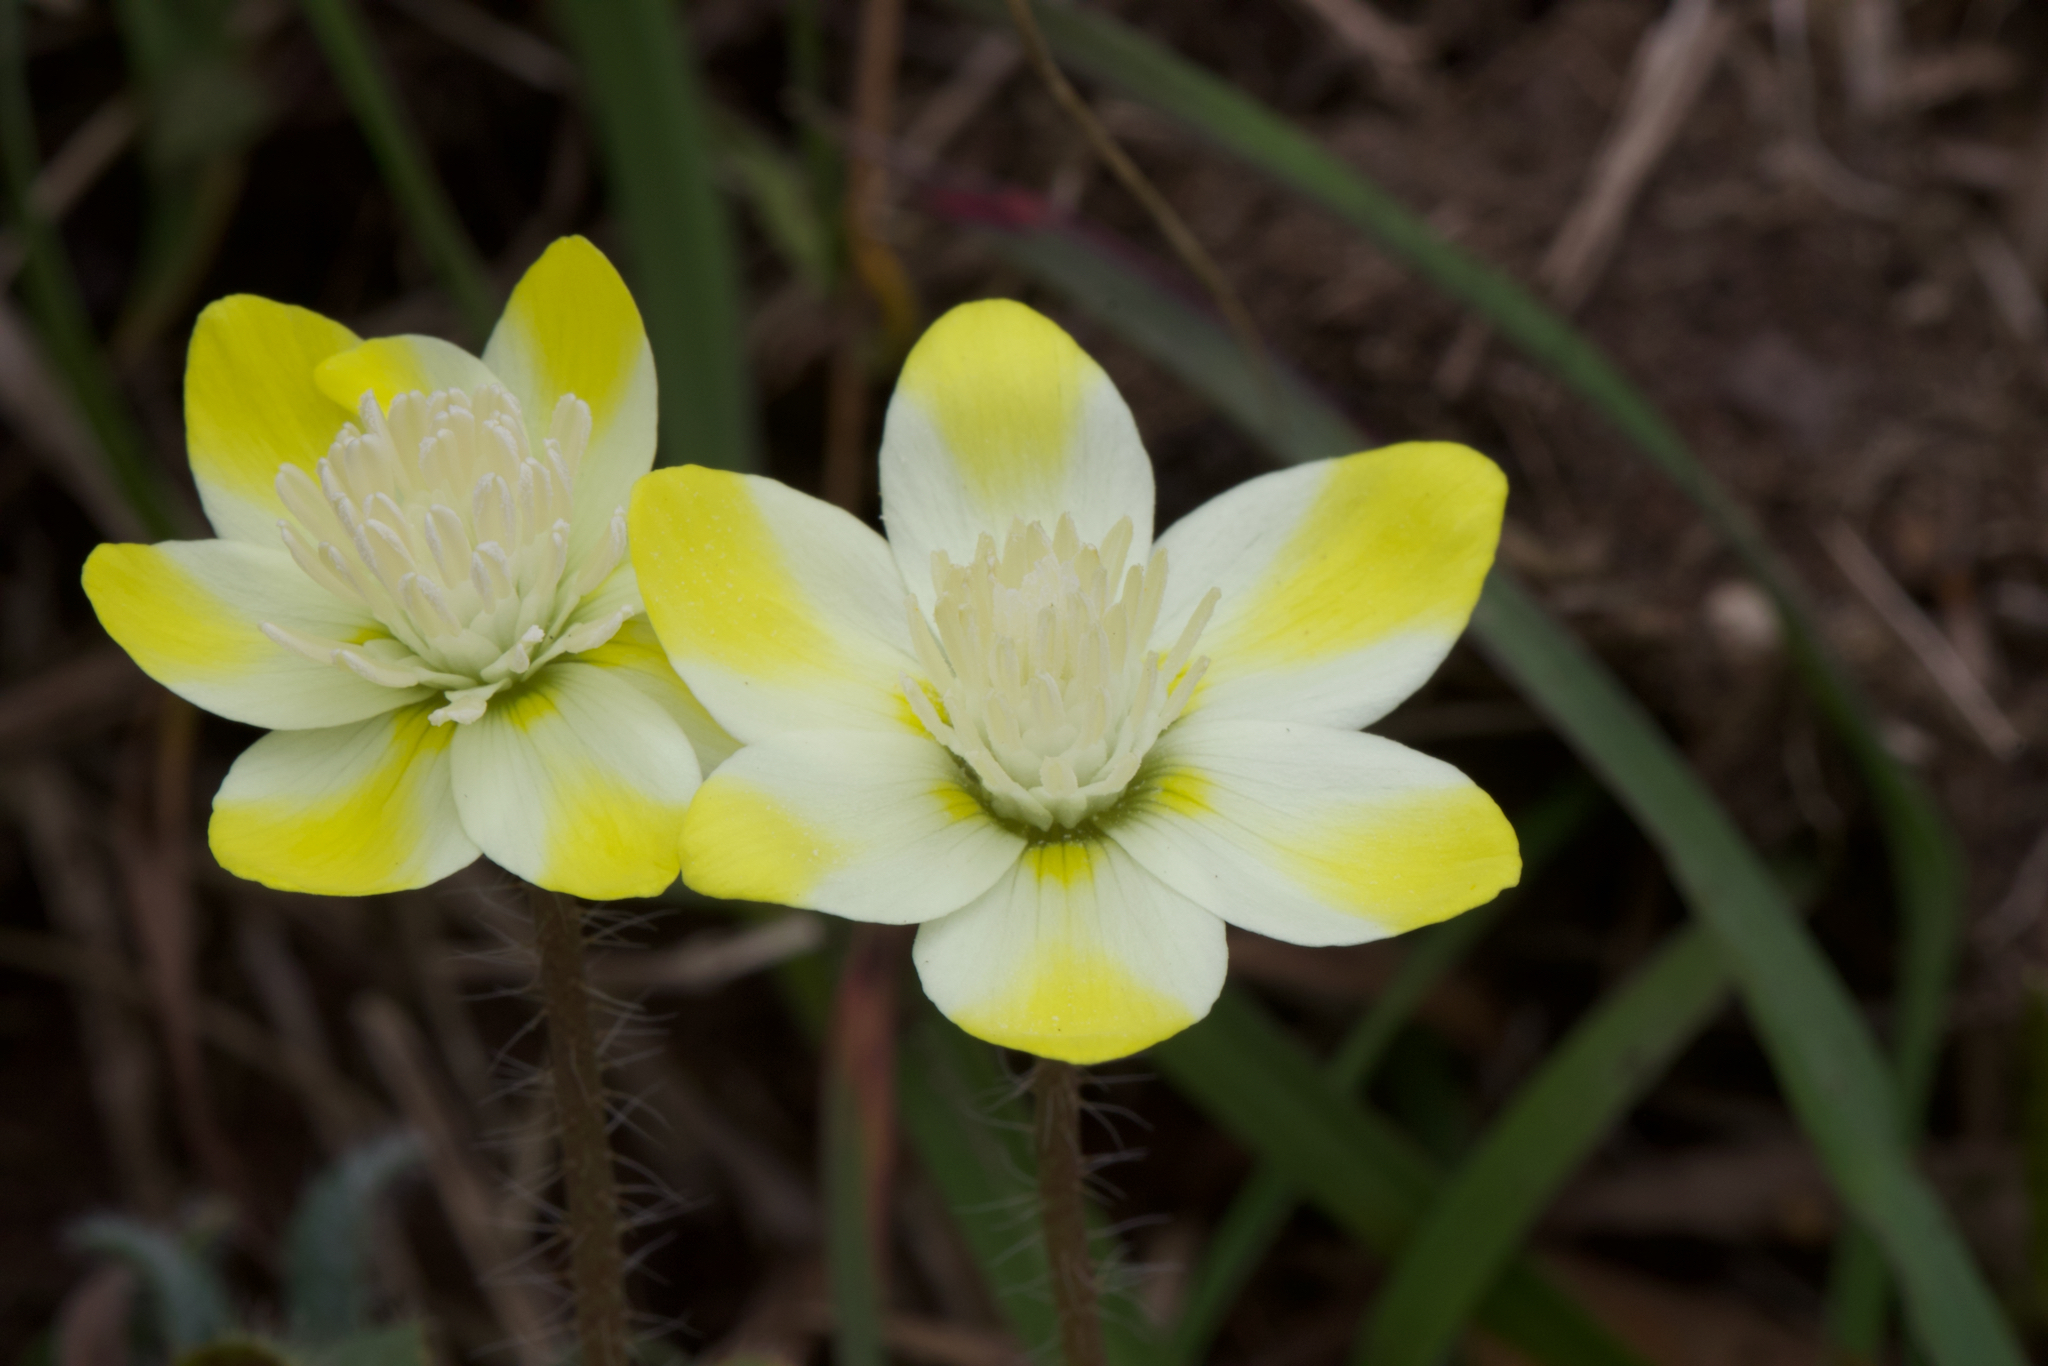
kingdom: Plantae
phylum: Tracheophyta
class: Magnoliopsida
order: Ranunculales
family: Papaveraceae
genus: Platystemon
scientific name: Platystemon californicus
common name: Cream-cups
